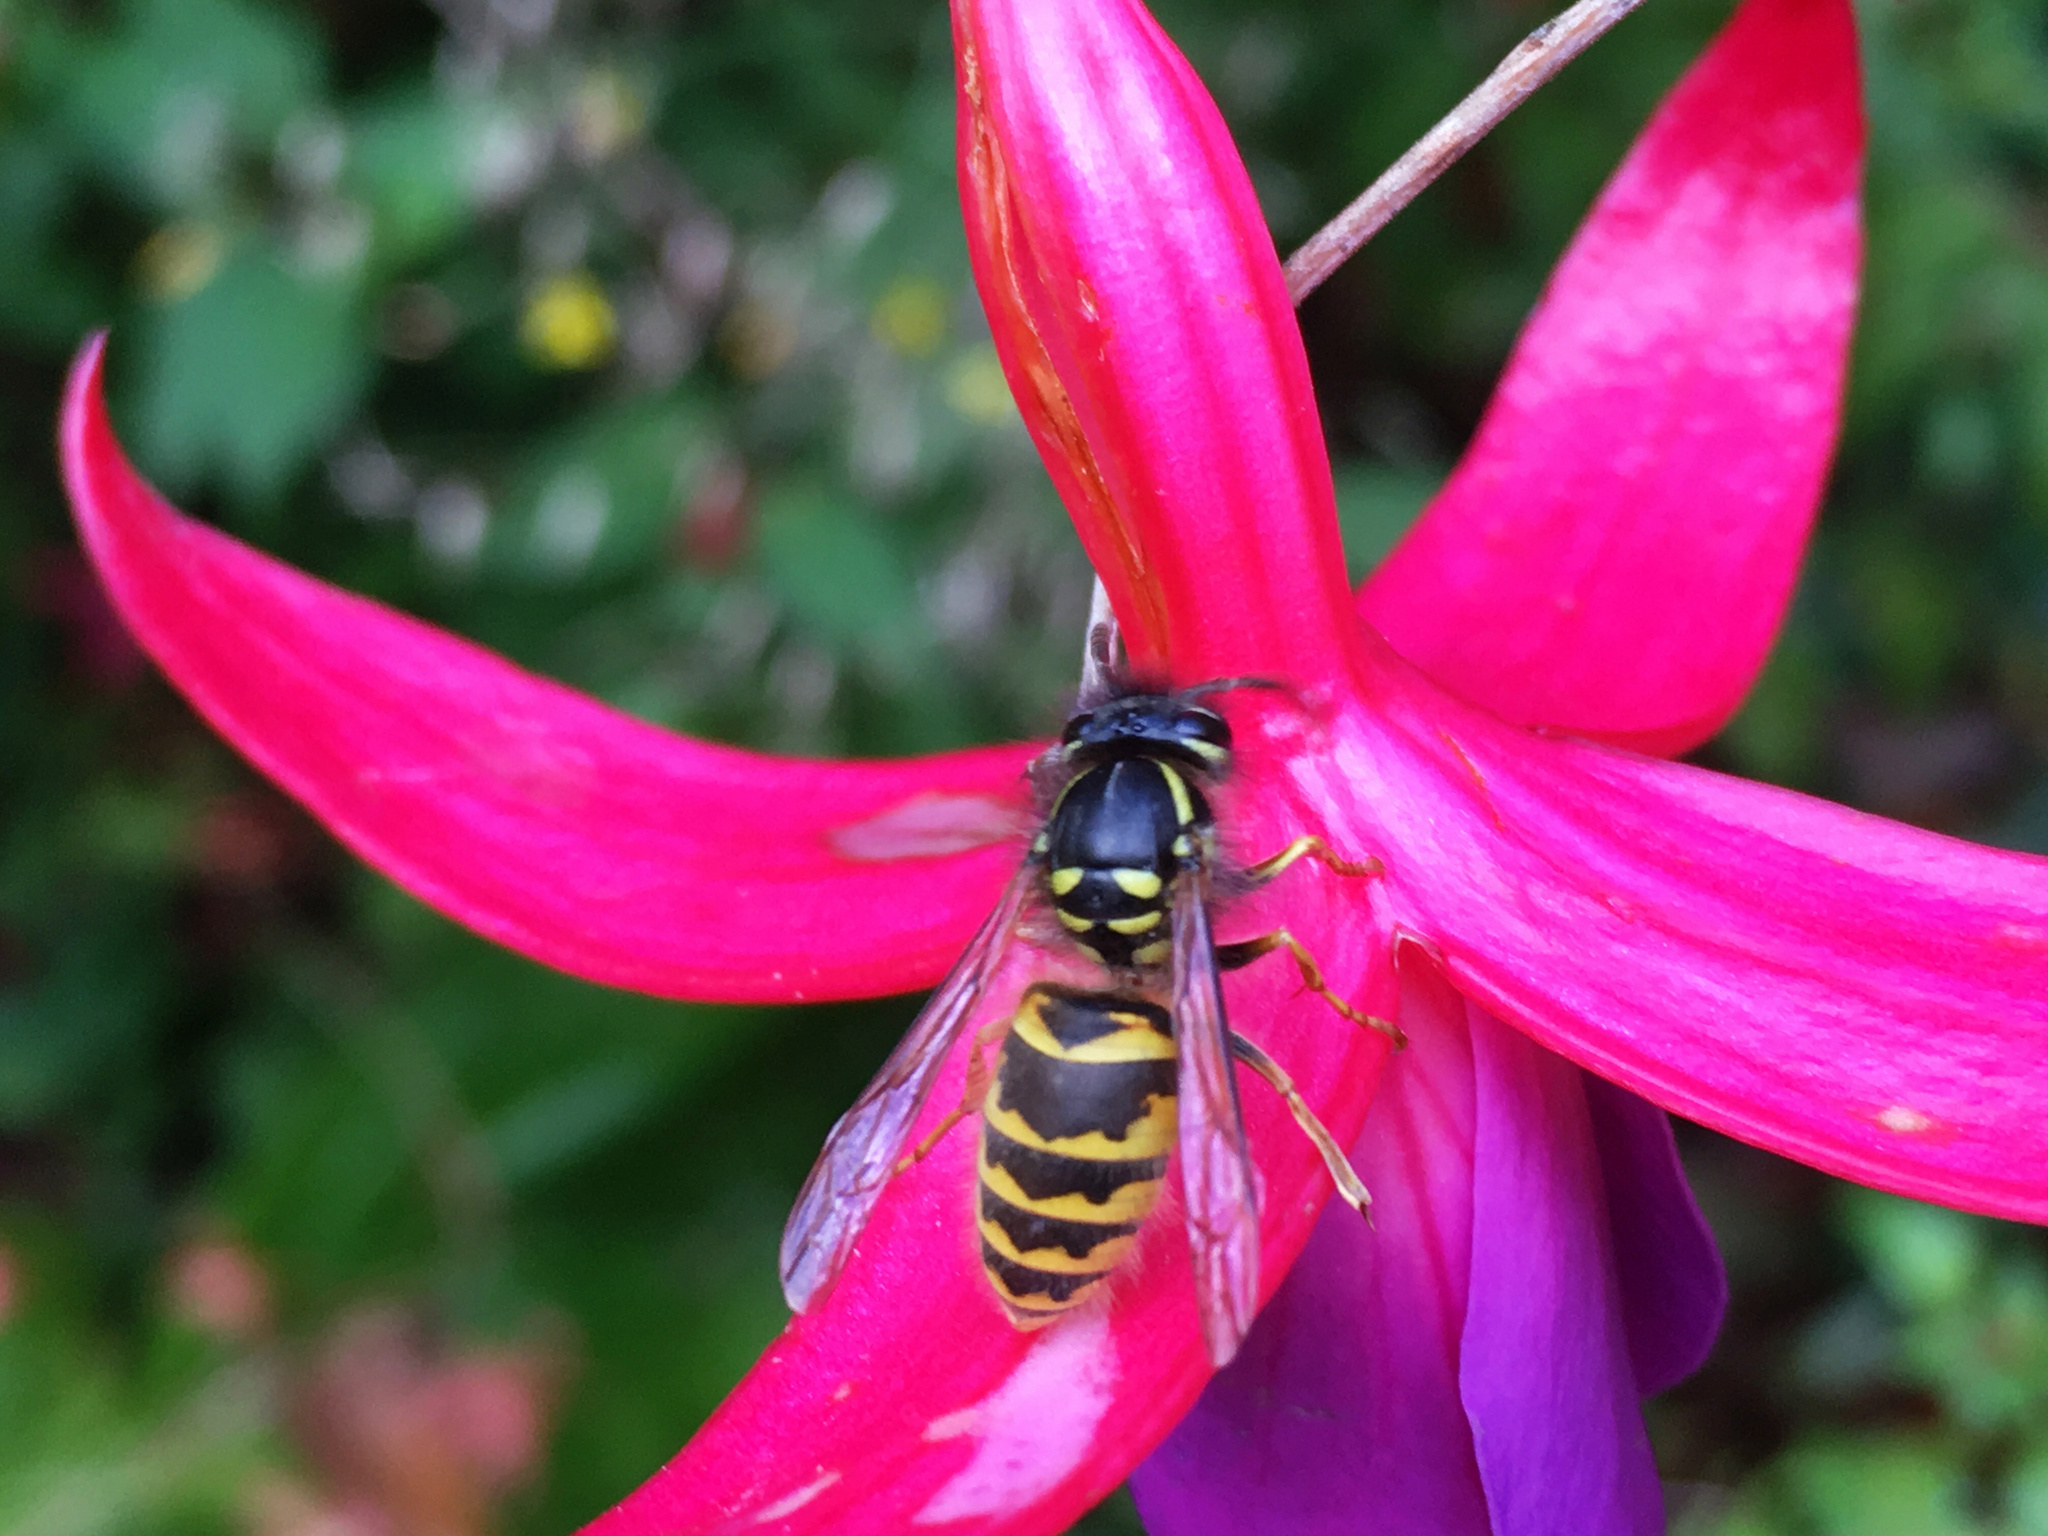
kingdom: Animalia
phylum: Arthropoda
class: Insecta
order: Hymenoptera
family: Vespidae
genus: Vespula
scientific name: Vespula vulgaris
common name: Common wasp
